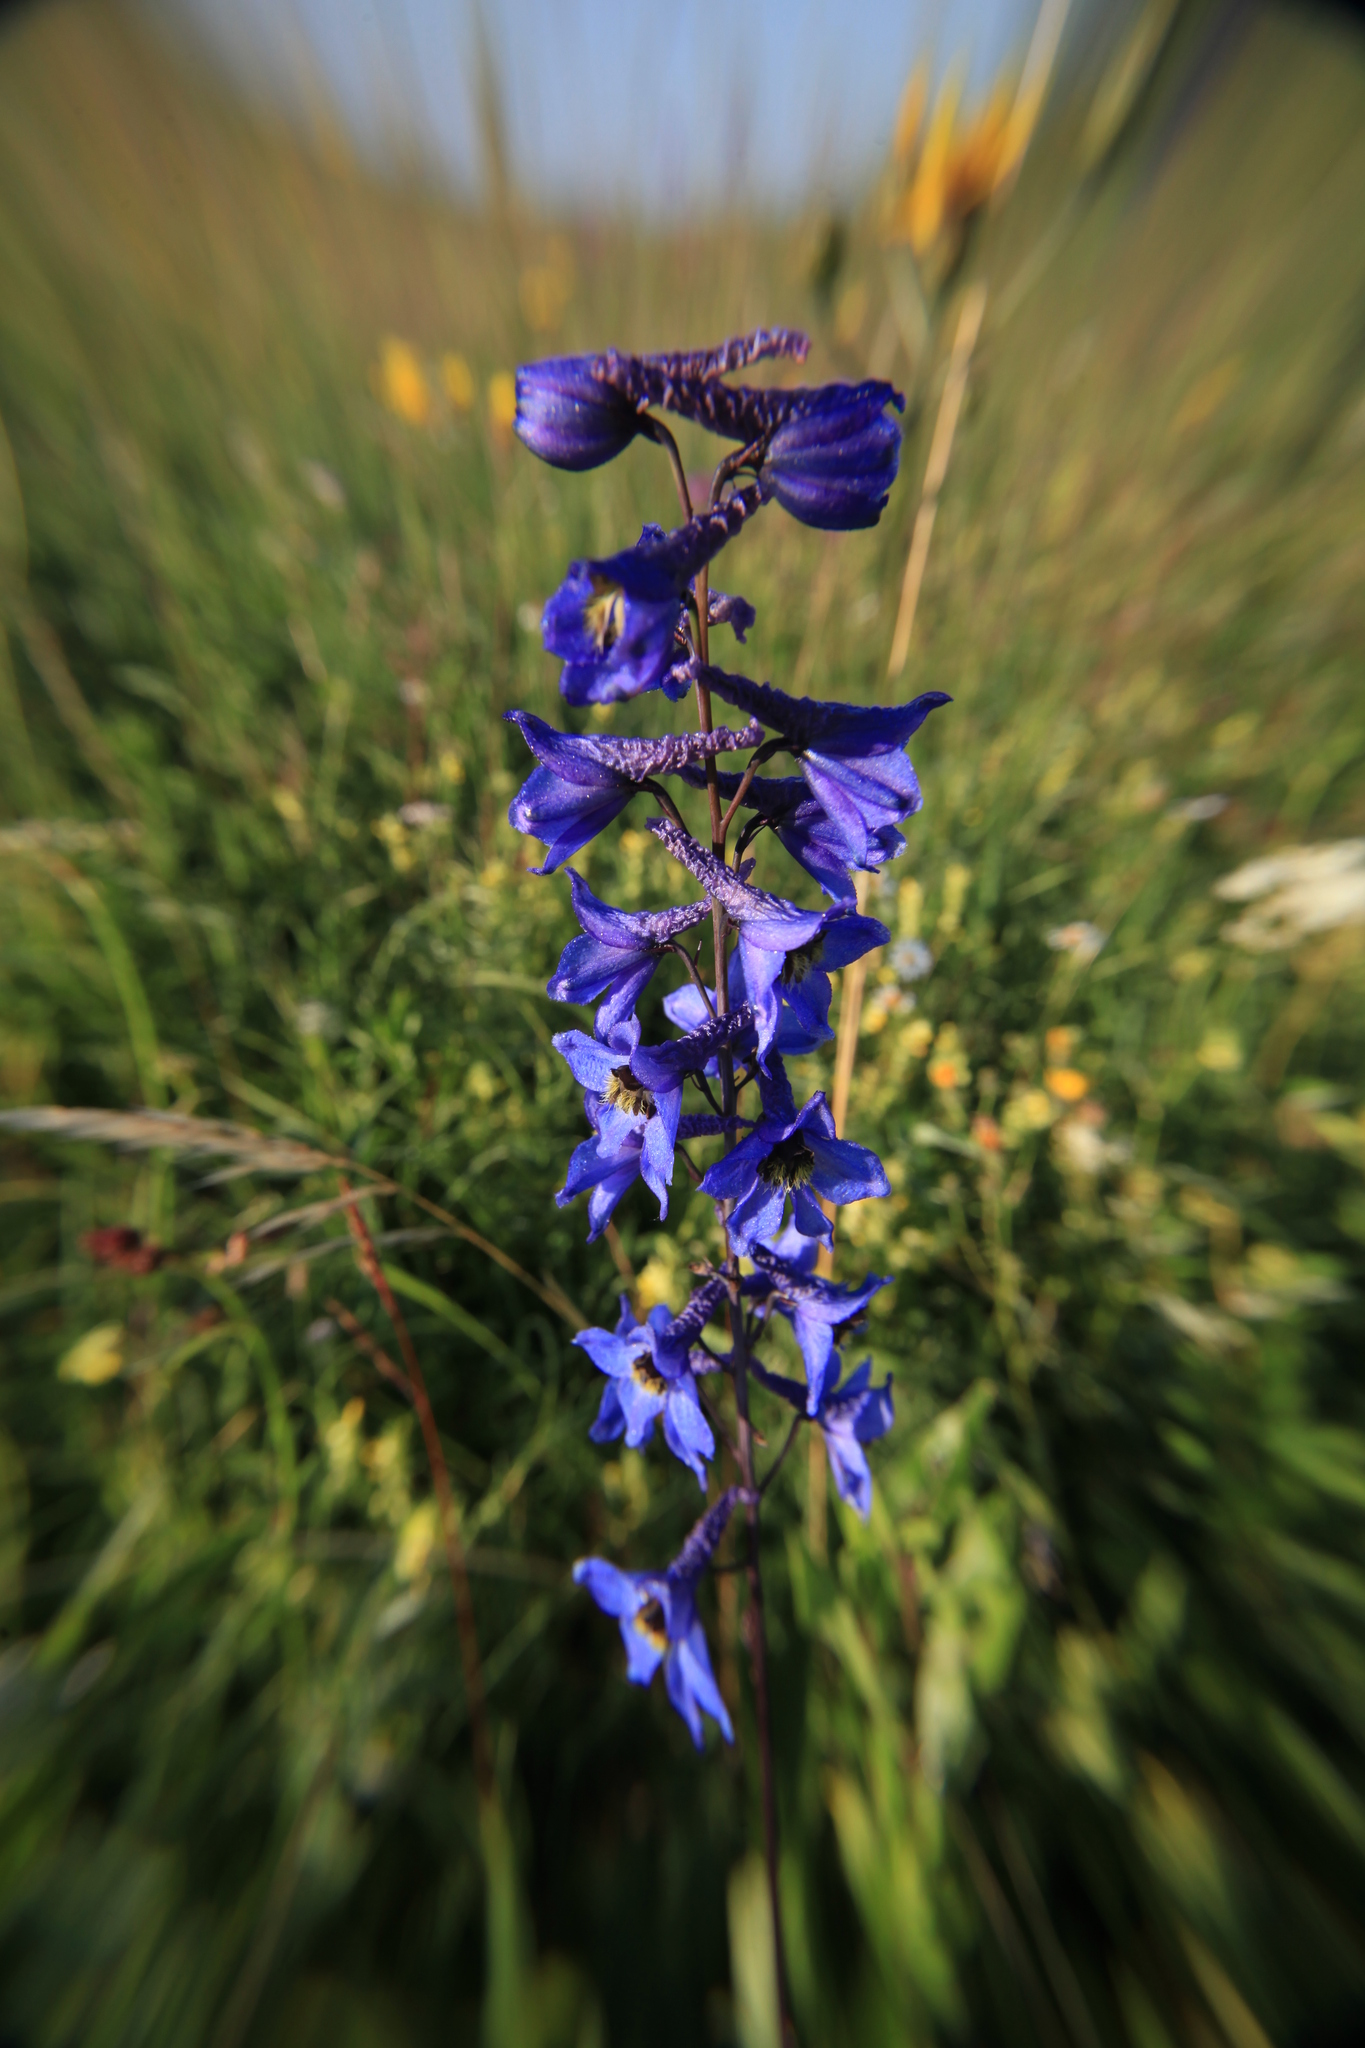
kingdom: Plantae
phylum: Tracheophyta
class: Magnoliopsida
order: Ranunculales
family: Ranunculaceae
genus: Delphinium
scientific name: Delphinium elatum
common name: Candle larkspur
